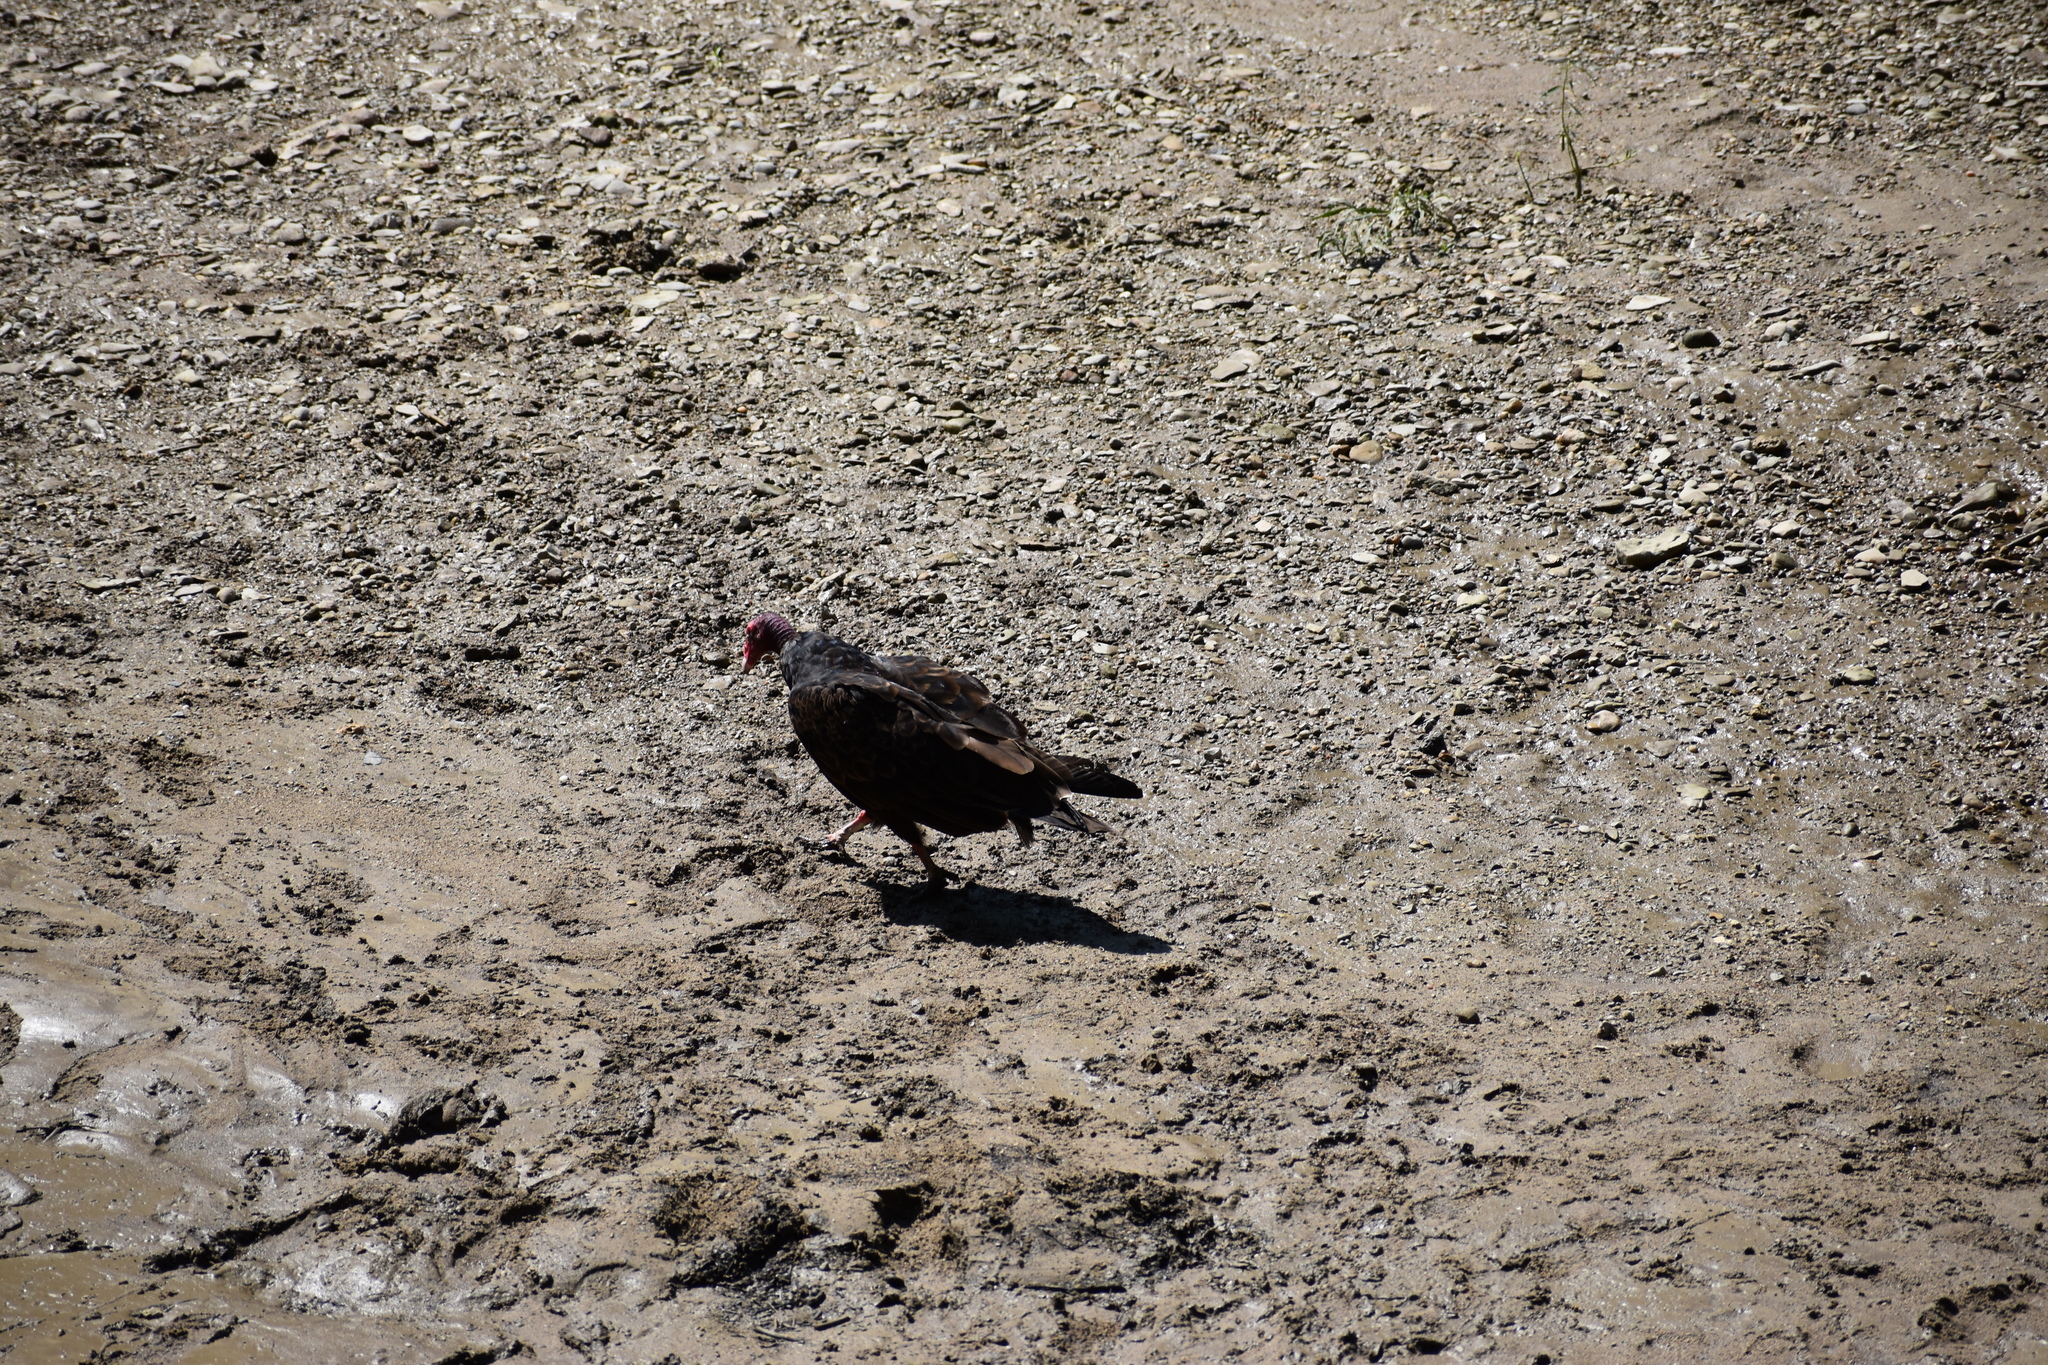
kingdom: Animalia
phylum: Chordata
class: Aves
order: Accipitriformes
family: Cathartidae
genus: Cathartes
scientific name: Cathartes aura
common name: Turkey vulture
